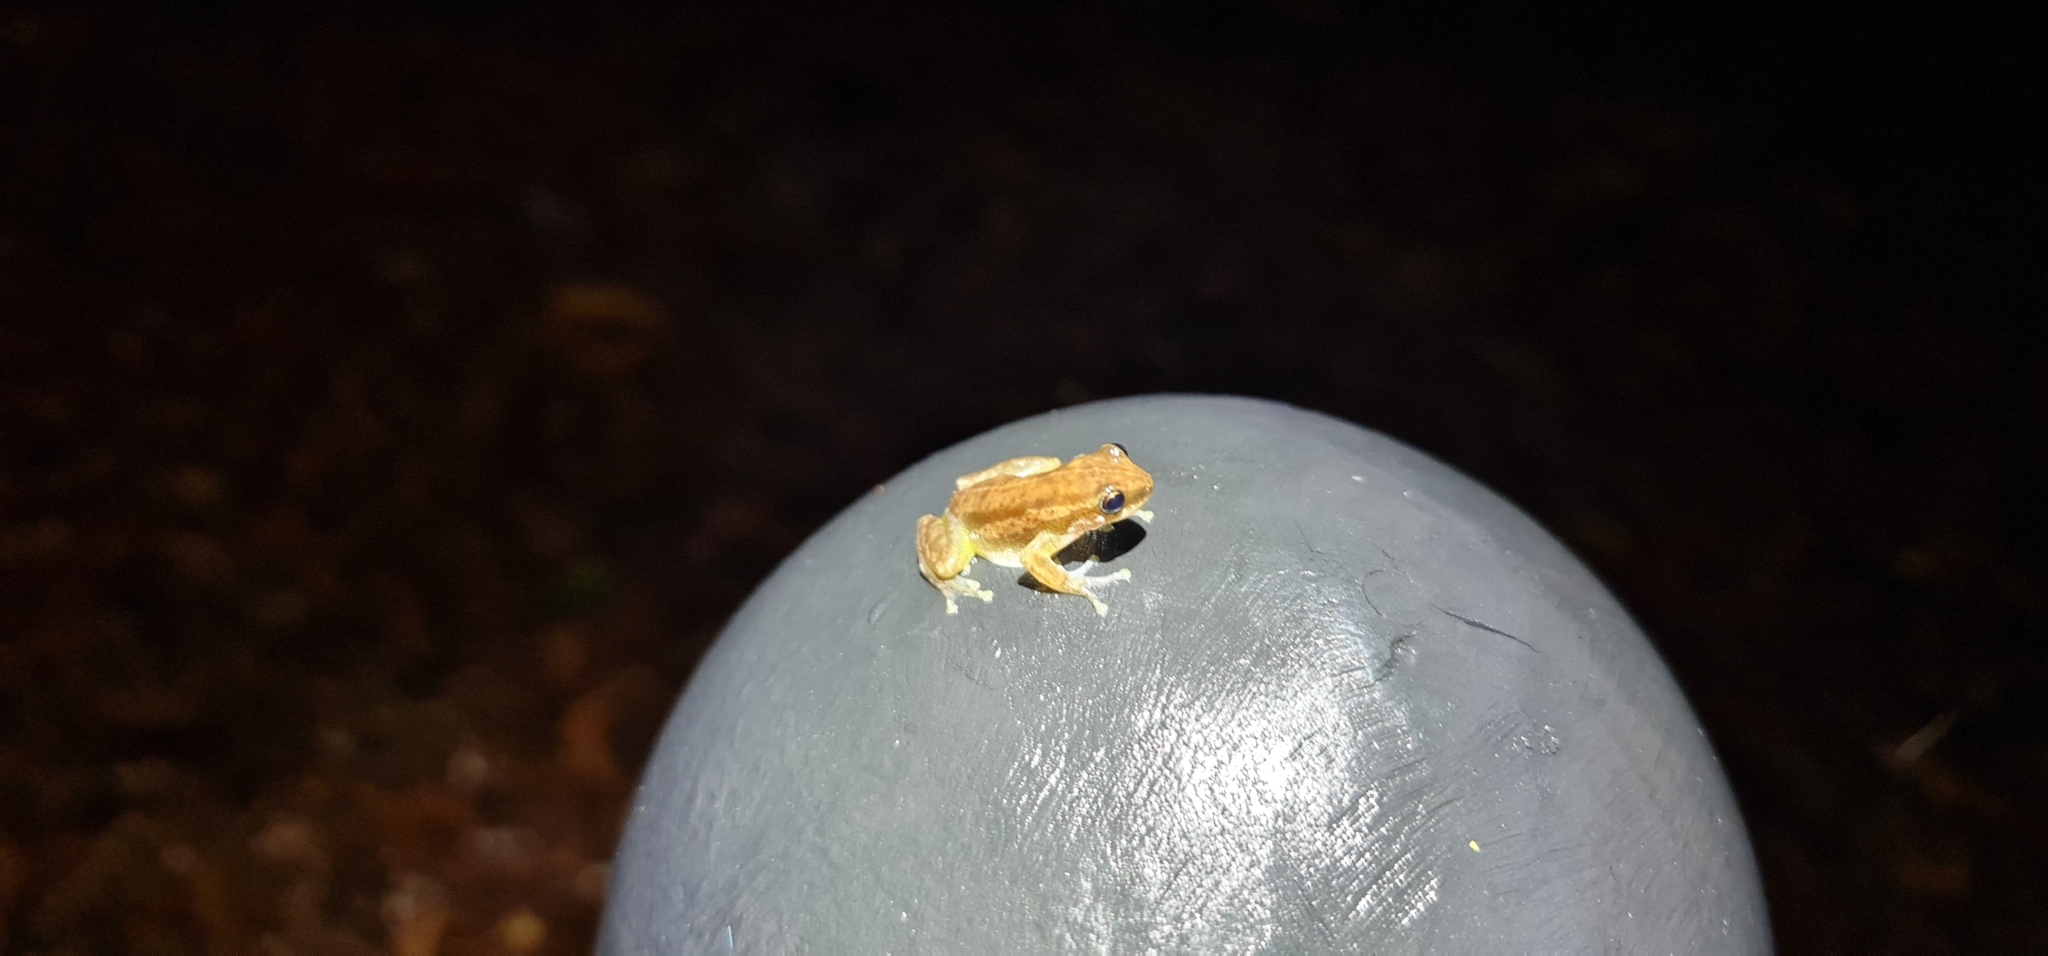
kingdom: Animalia
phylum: Chordata
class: Amphibia
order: Anura
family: Pelodryadidae
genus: Litoria
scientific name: Litoria rubella
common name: Desert tree frog
